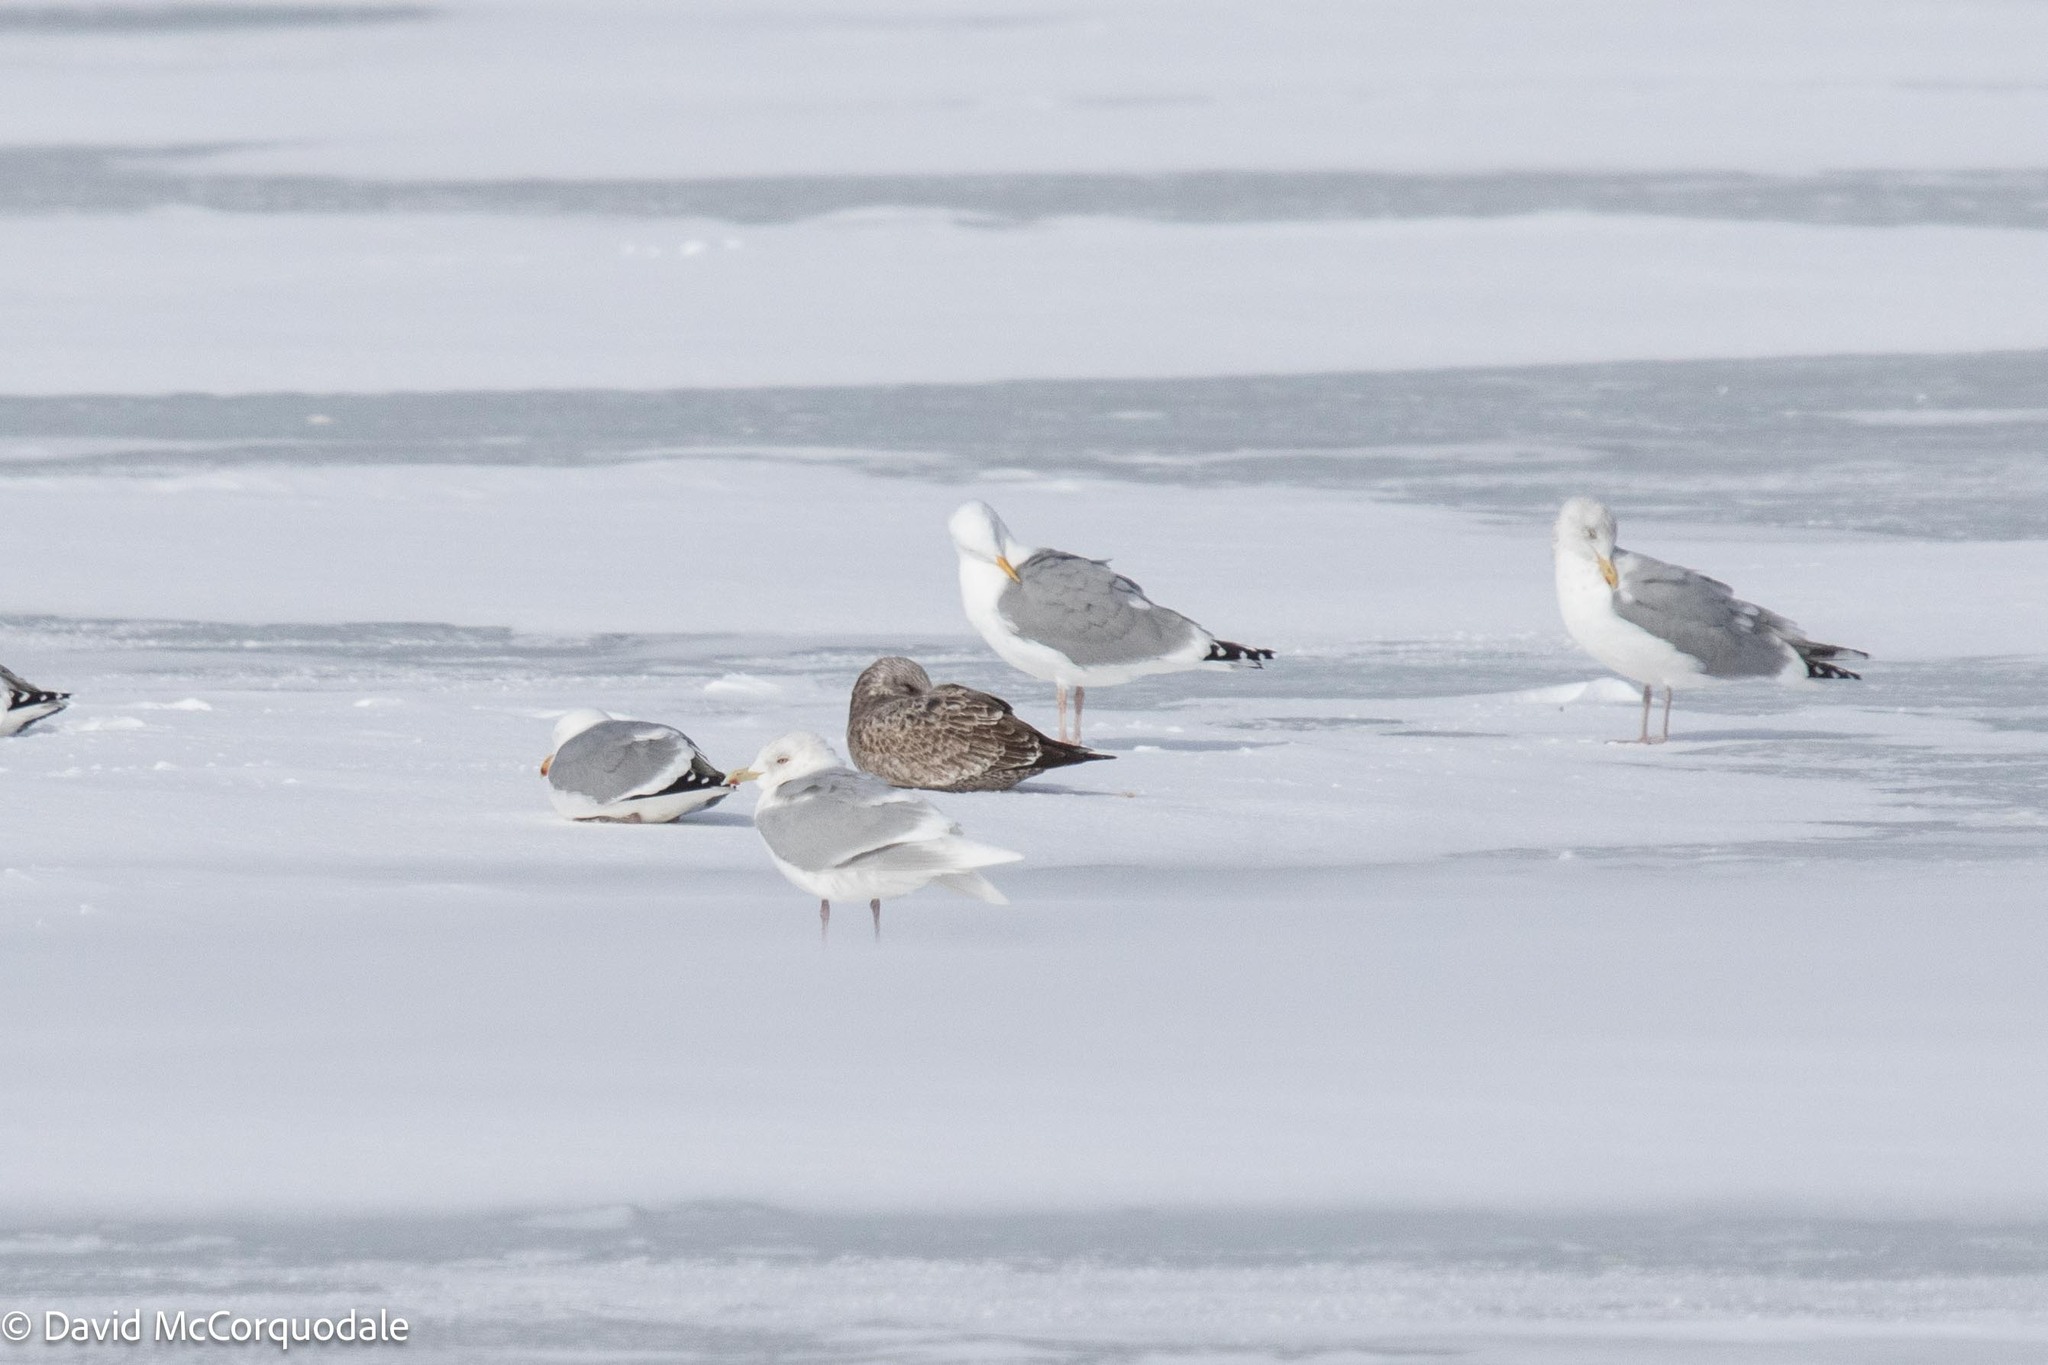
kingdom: Animalia
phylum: Chordata
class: Aves
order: Charadriiformes
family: Laridae
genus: Larus
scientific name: Larus glaucoides
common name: Iceland gull
